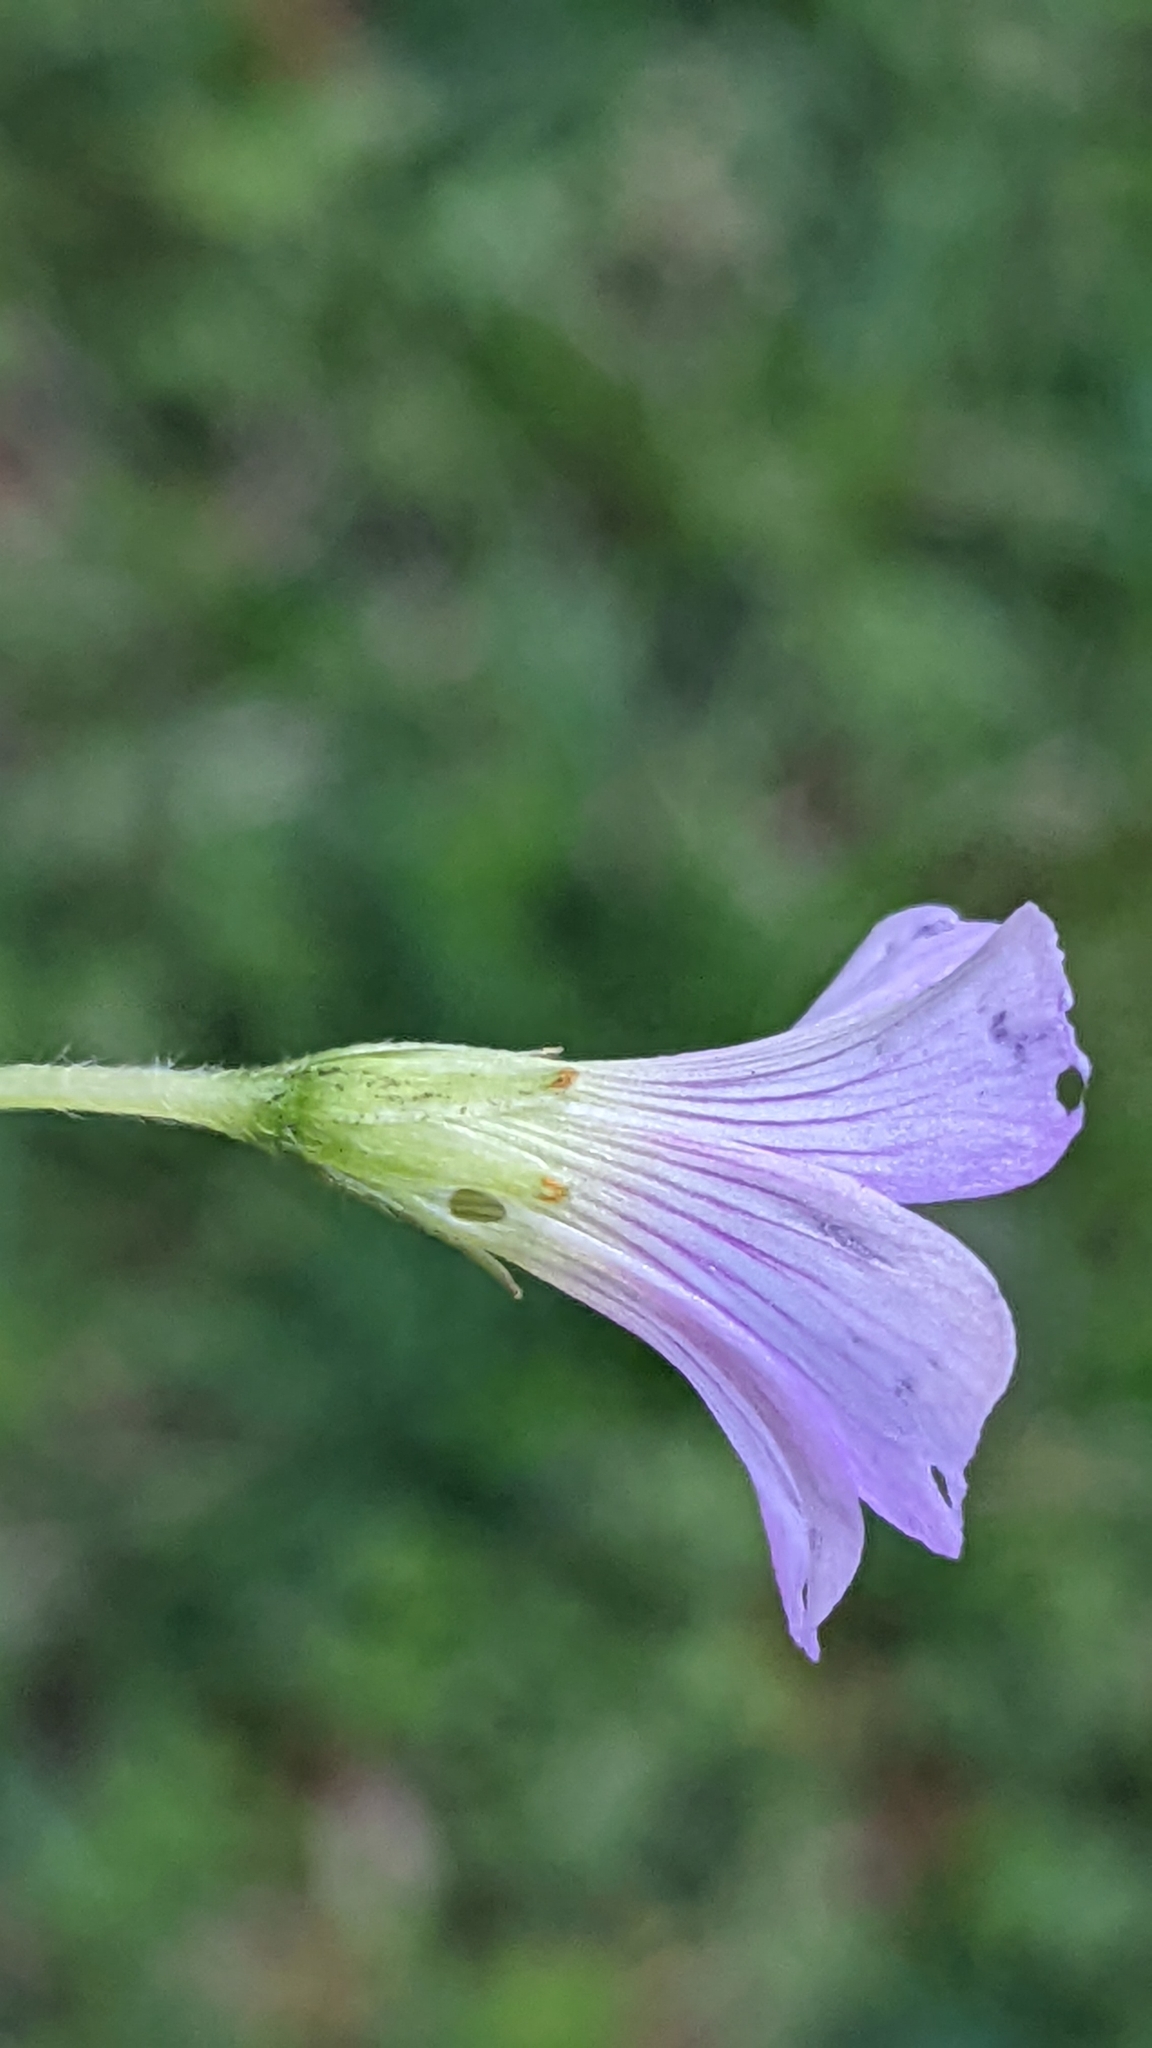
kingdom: Plantae
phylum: Tracheophyta
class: Magnoliopsida
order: Oxalidales
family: Oxalidaceae
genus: Oxalis
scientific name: Oxalis debilis
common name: Large-flowered pink-sorrel
